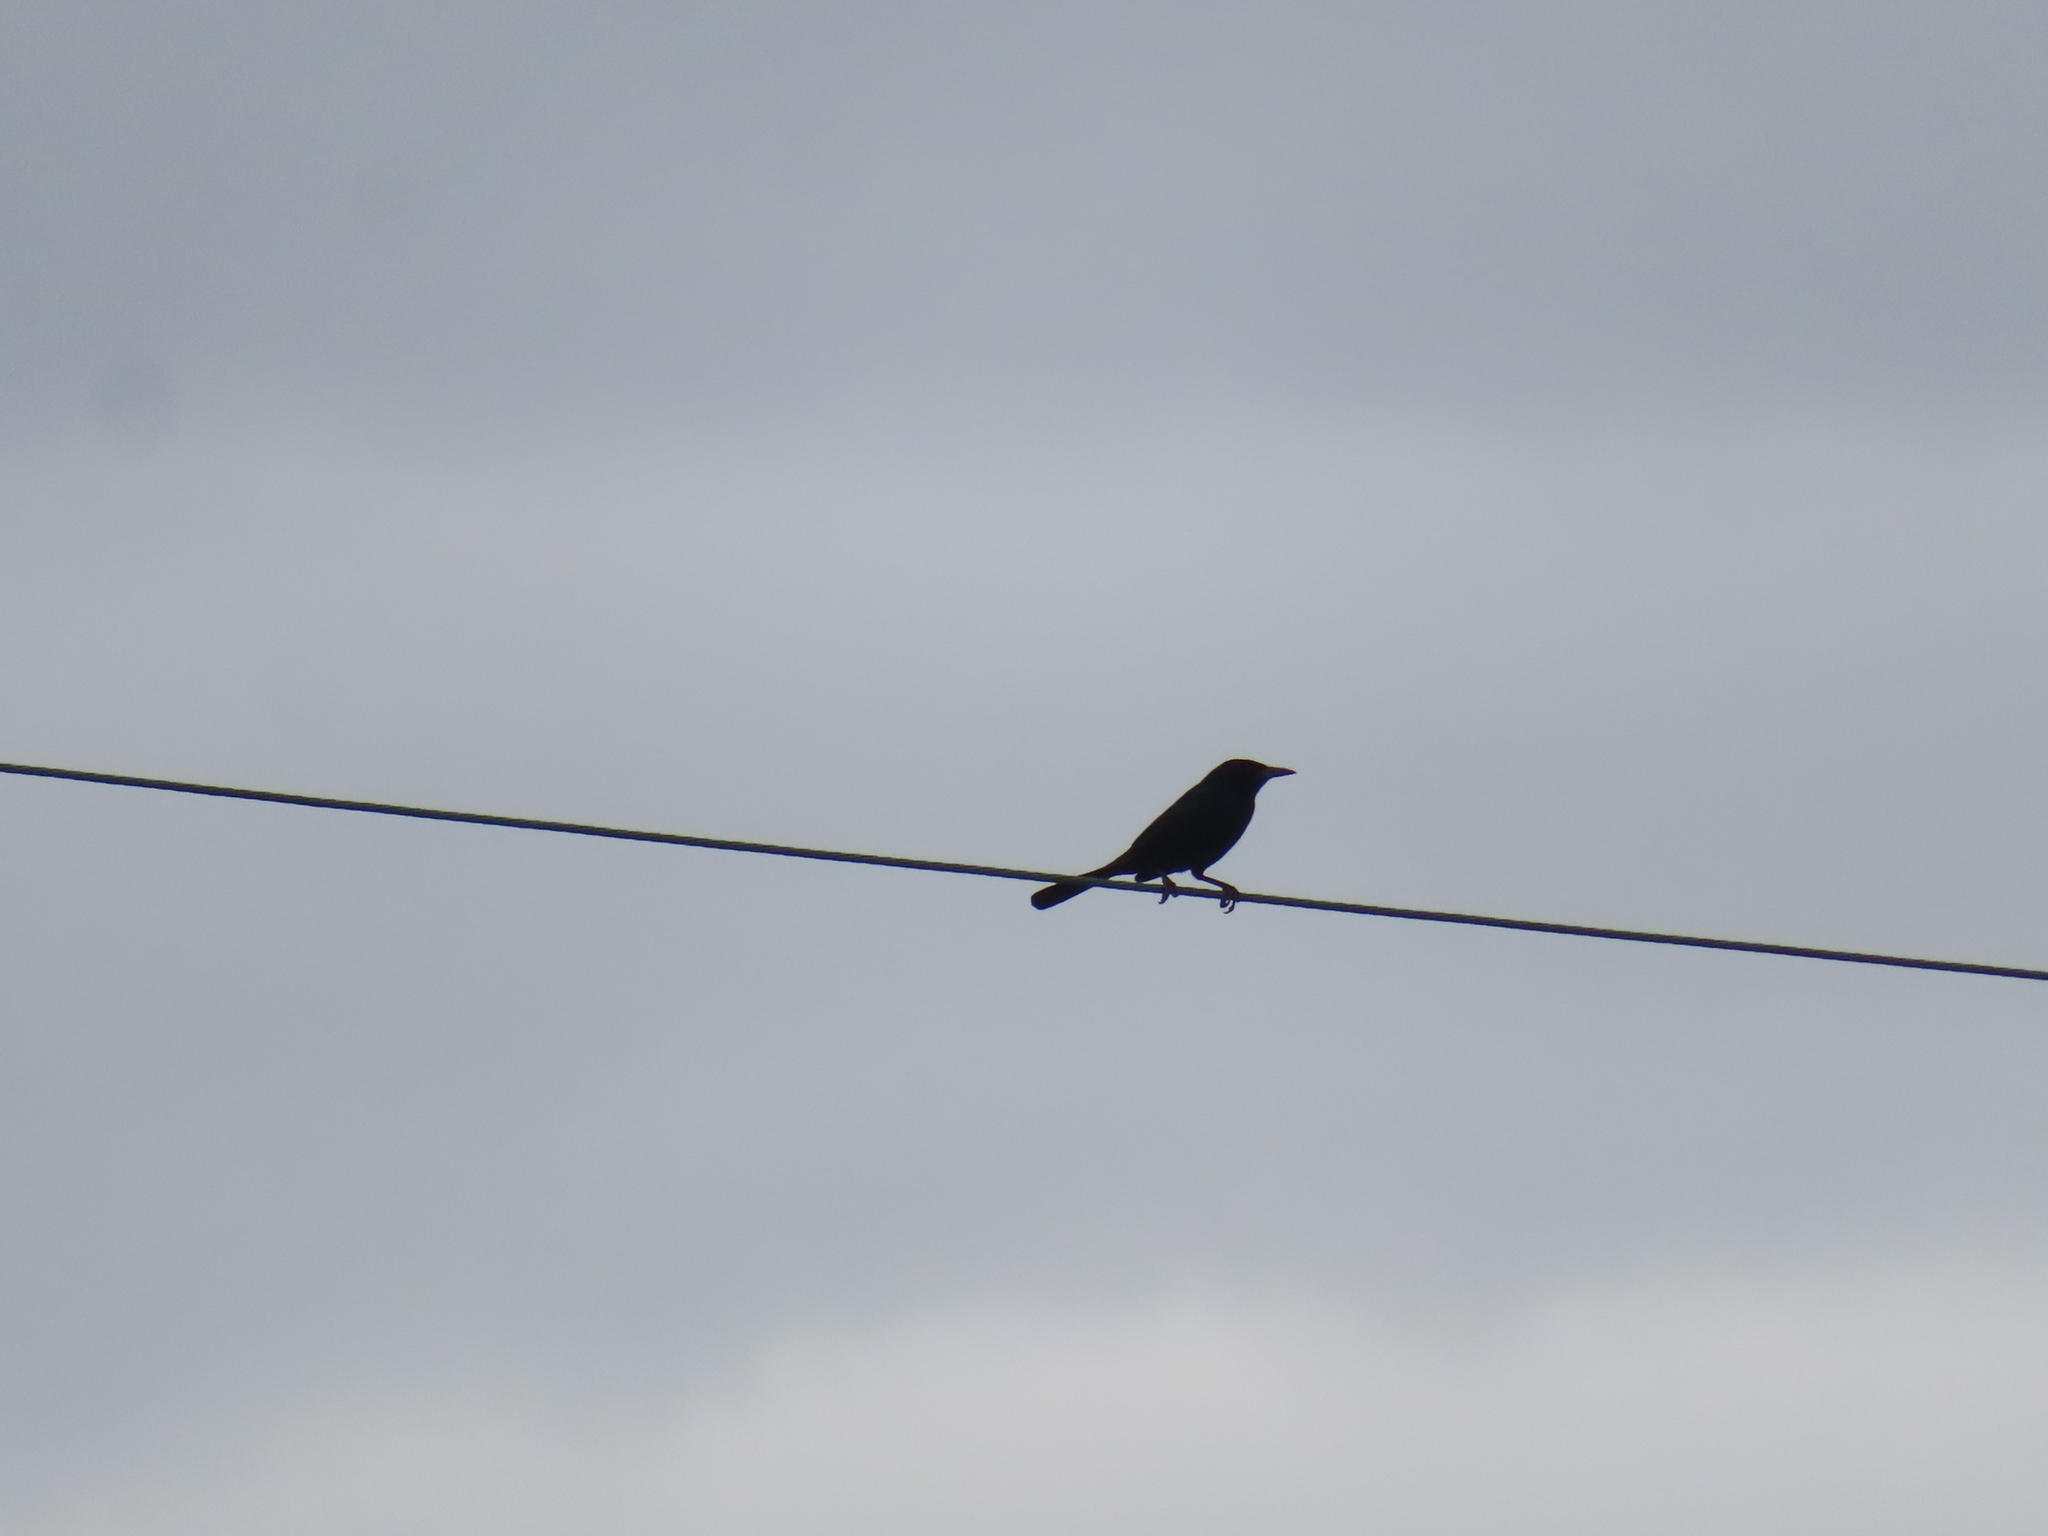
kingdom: Animalia
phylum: Chordata
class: Aves
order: Passeriformes
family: Icteridae
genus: Quiscalus
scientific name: Quiscalus quiscula
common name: Common grackle
